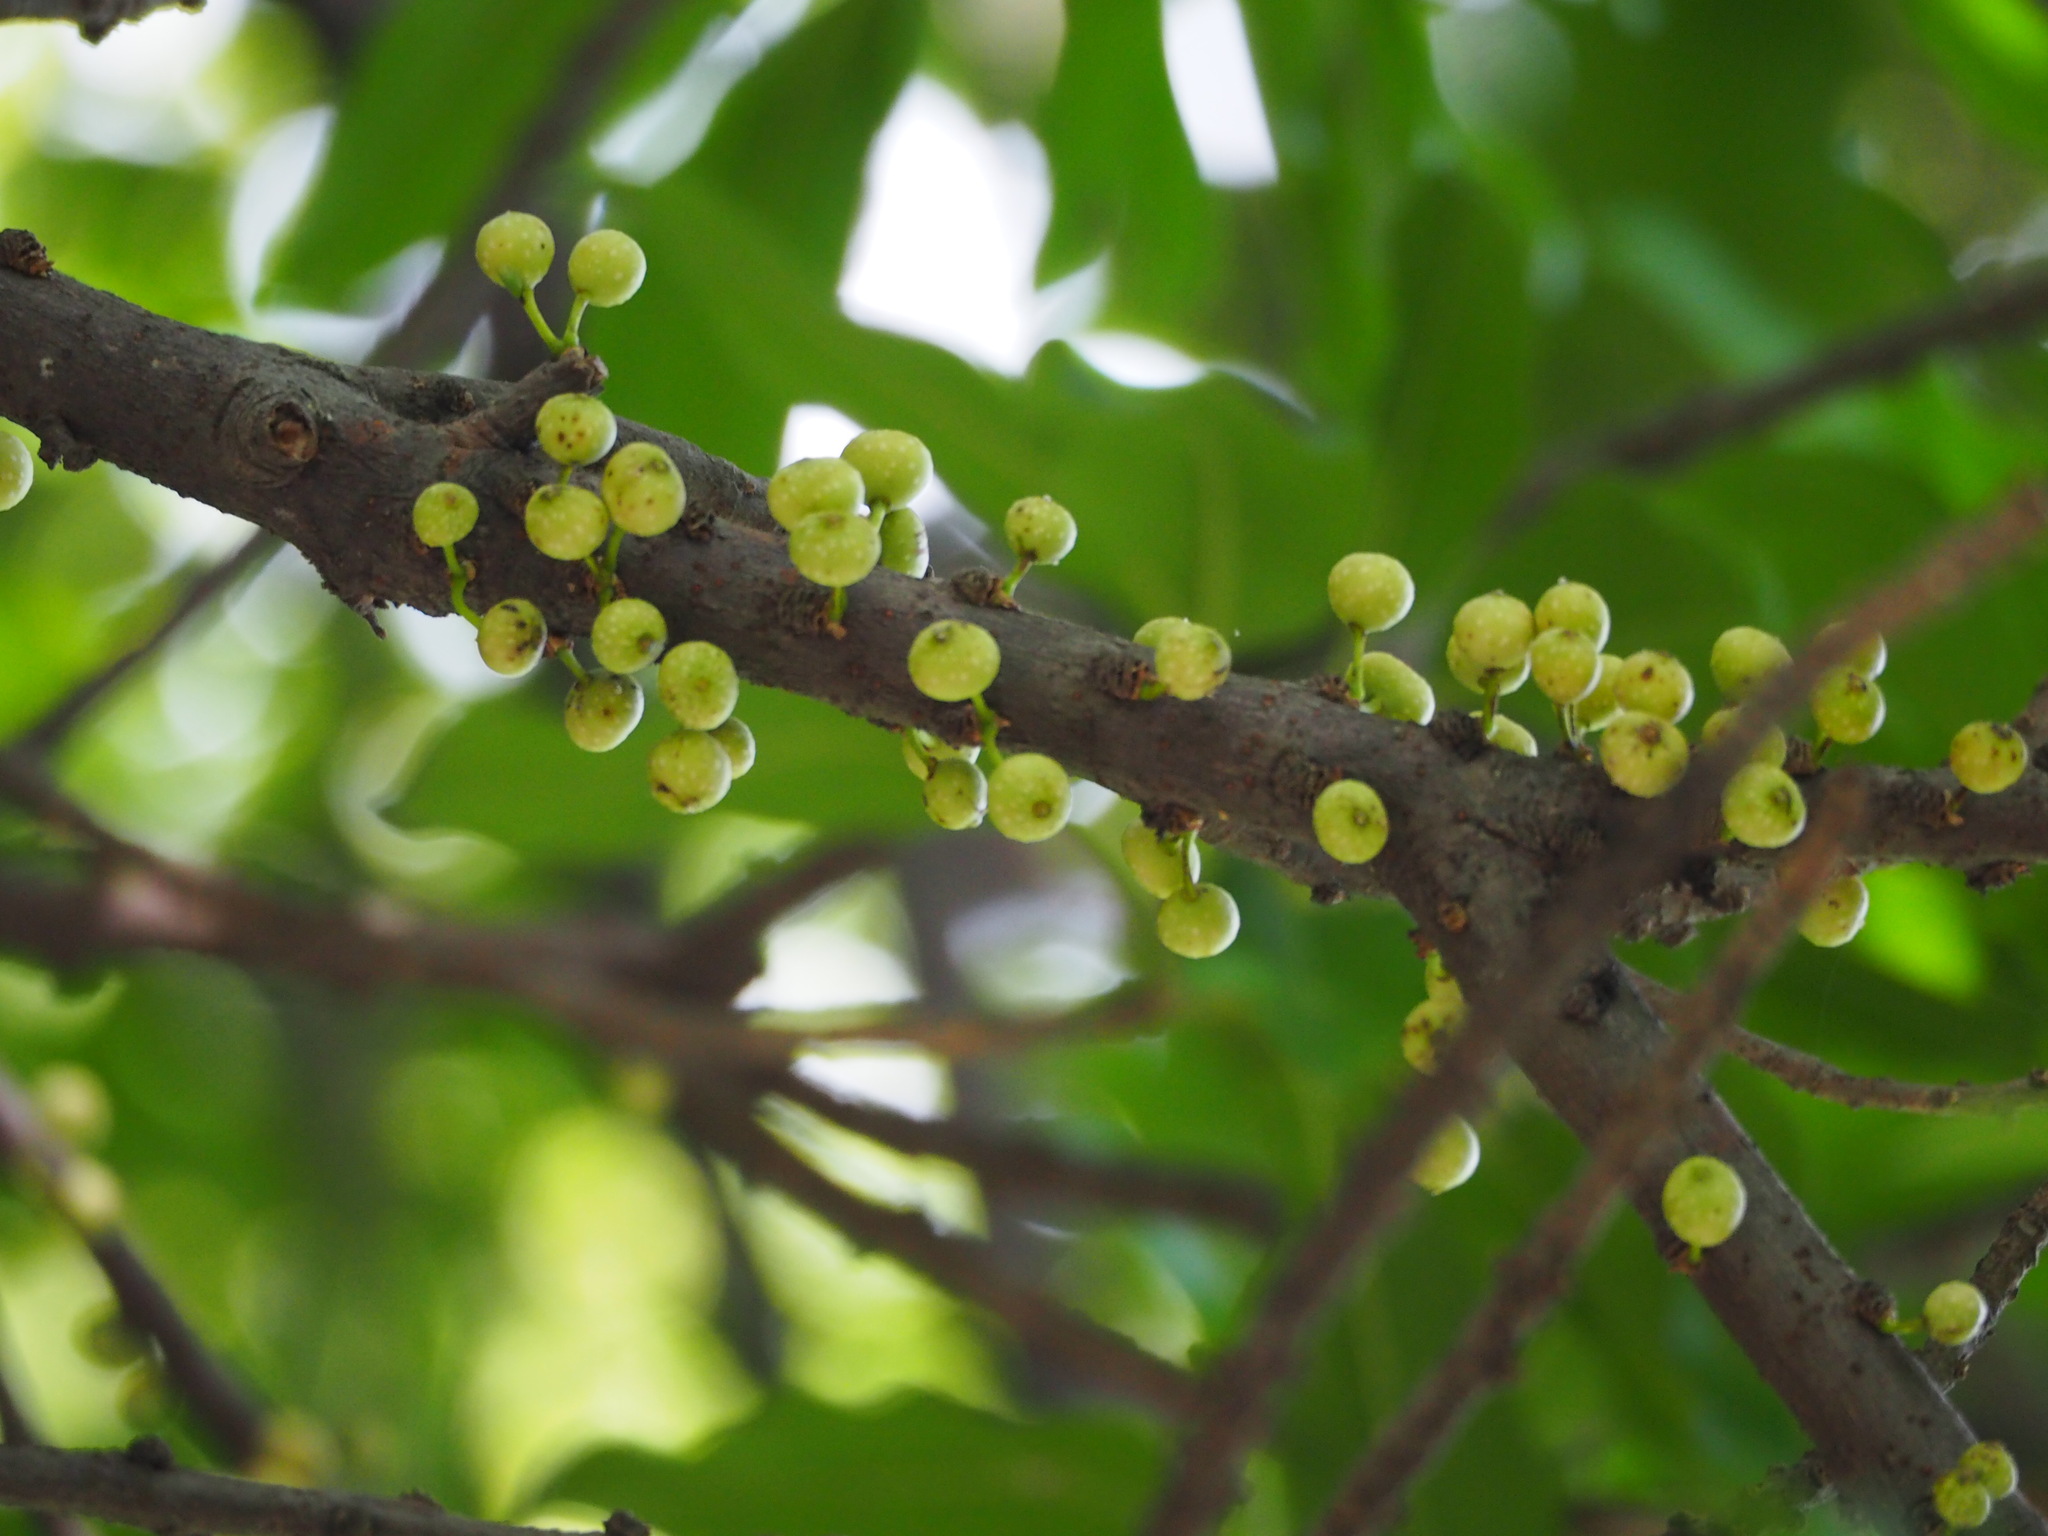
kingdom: Plantae
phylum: Tracheophyta
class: Magnoliopsida
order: Rosales
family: Moraceae
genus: Ficus
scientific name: Ficus subpisocarpa
